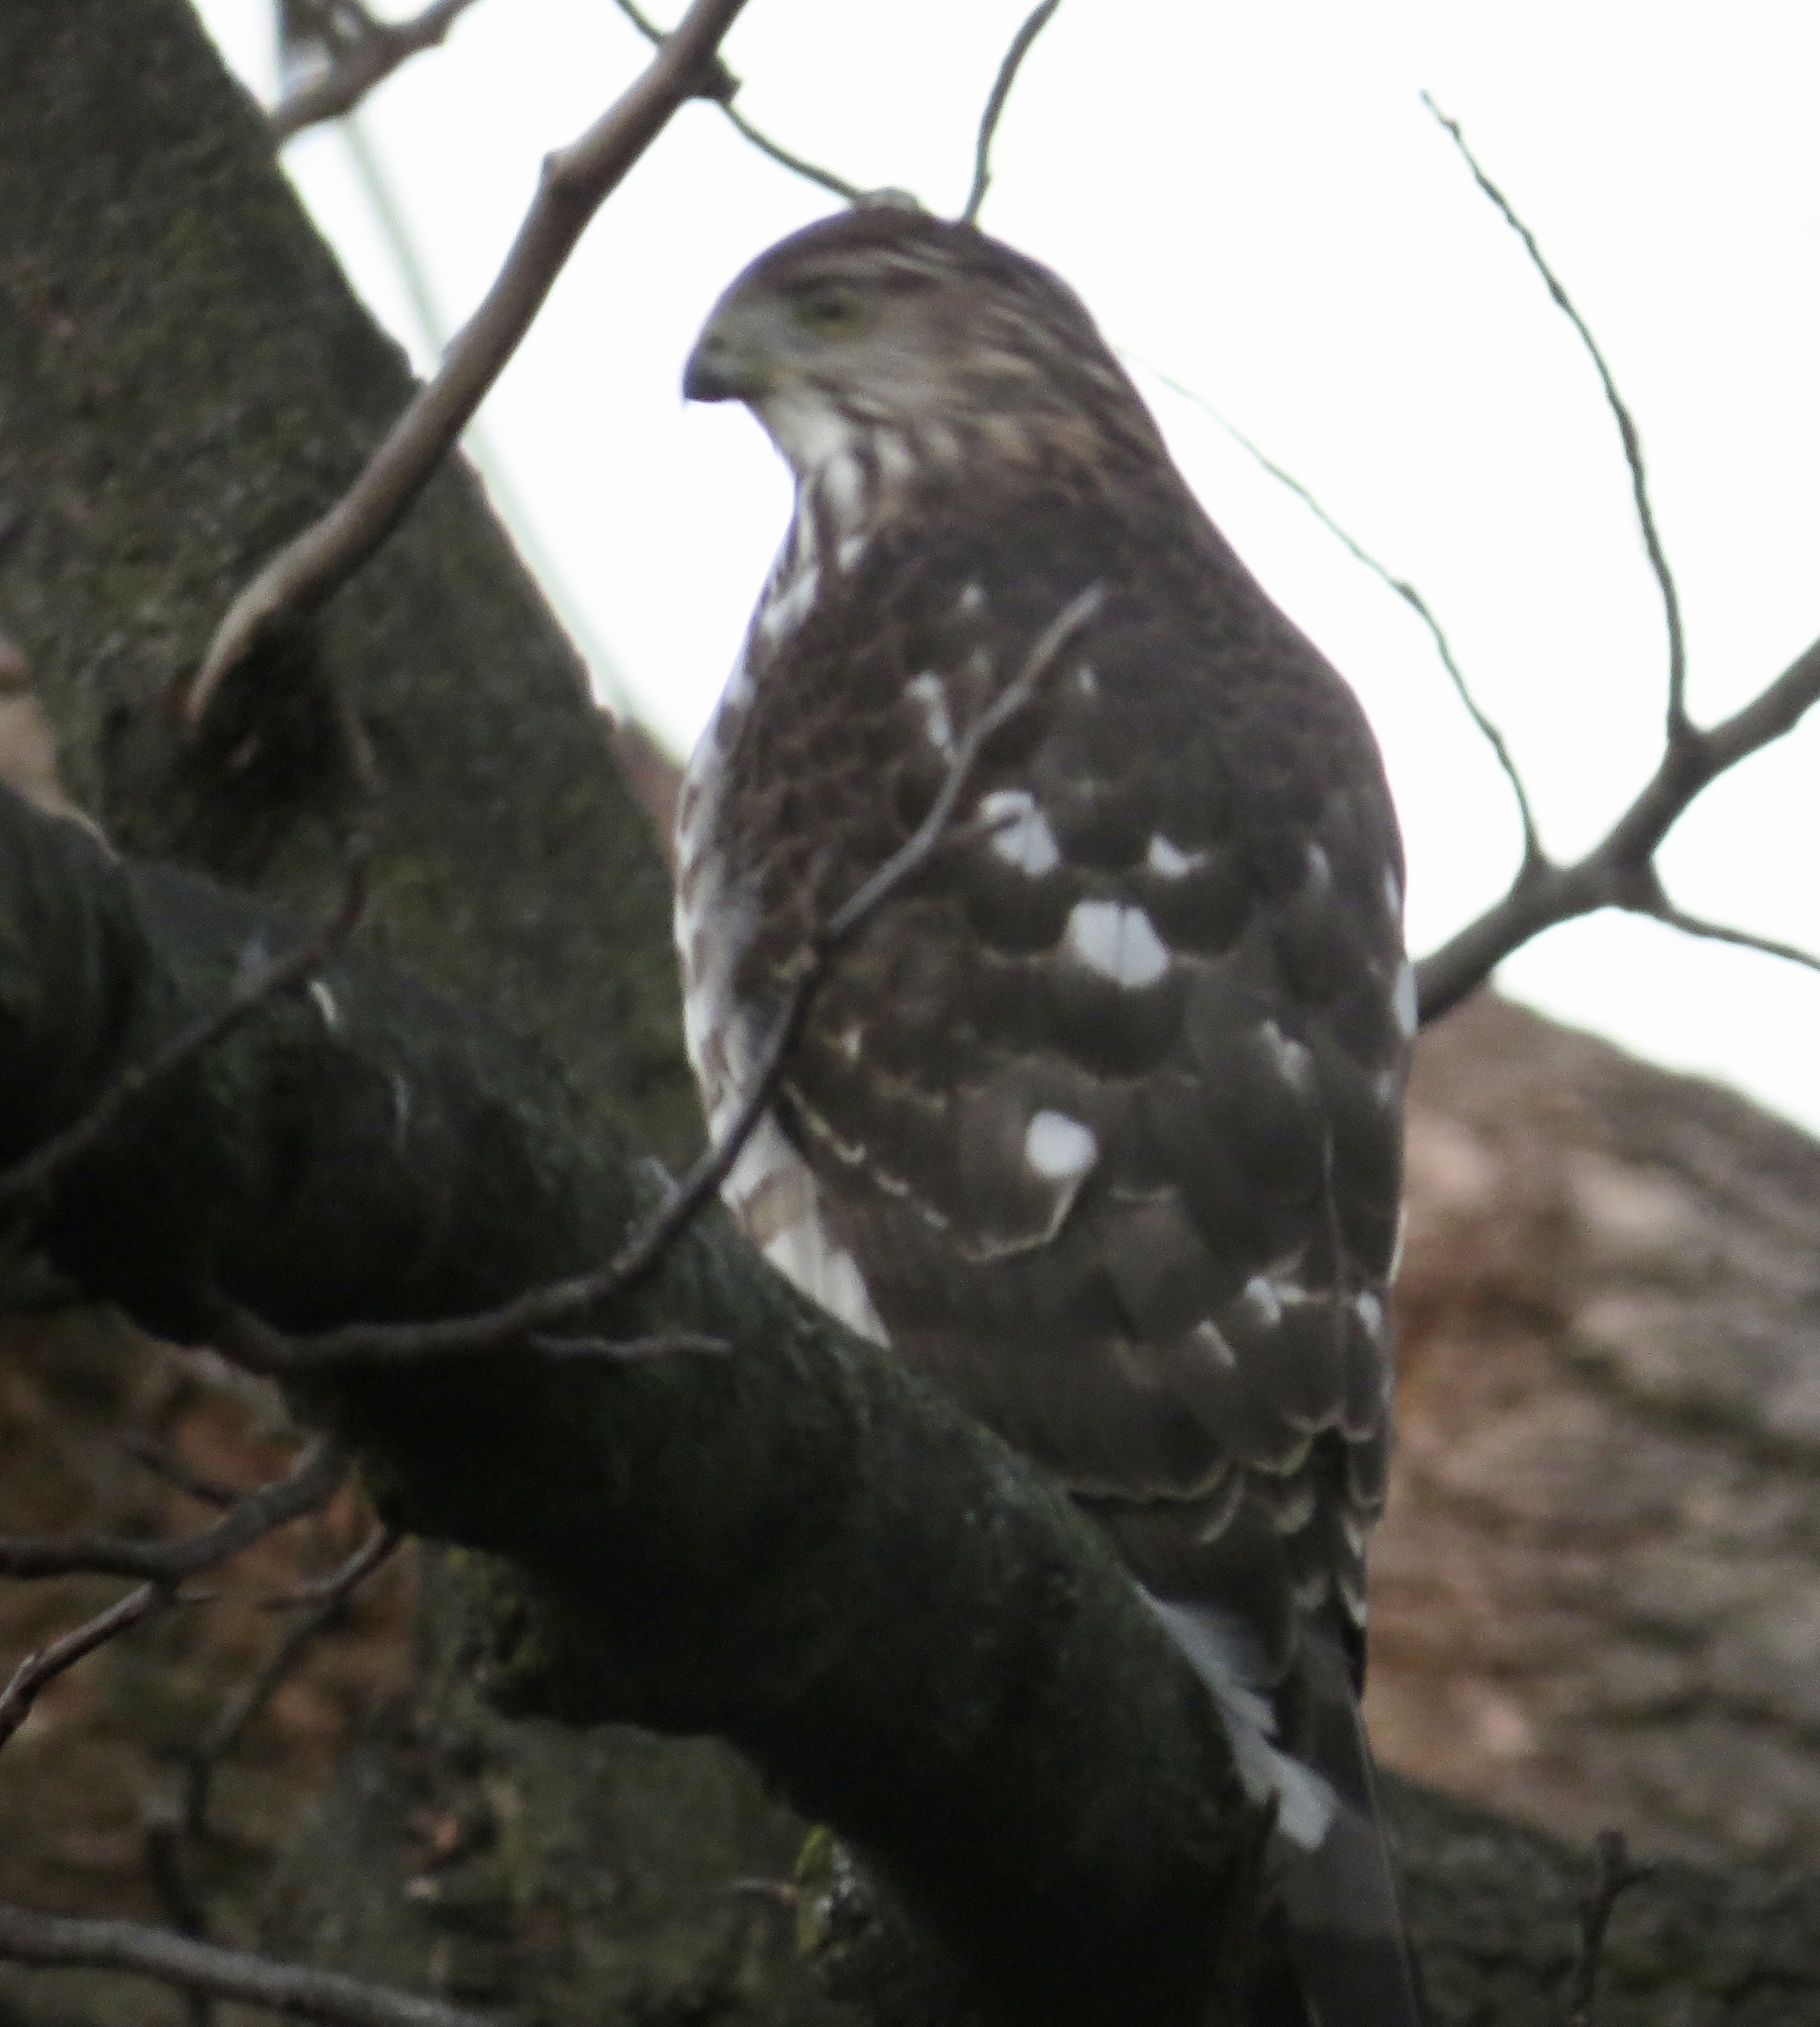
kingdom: Animalia
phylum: Chordata
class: Aves
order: Accipitriformes
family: Accipitridae
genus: Accipiter
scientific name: Accipiter cooperii
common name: Cooper's hawk
